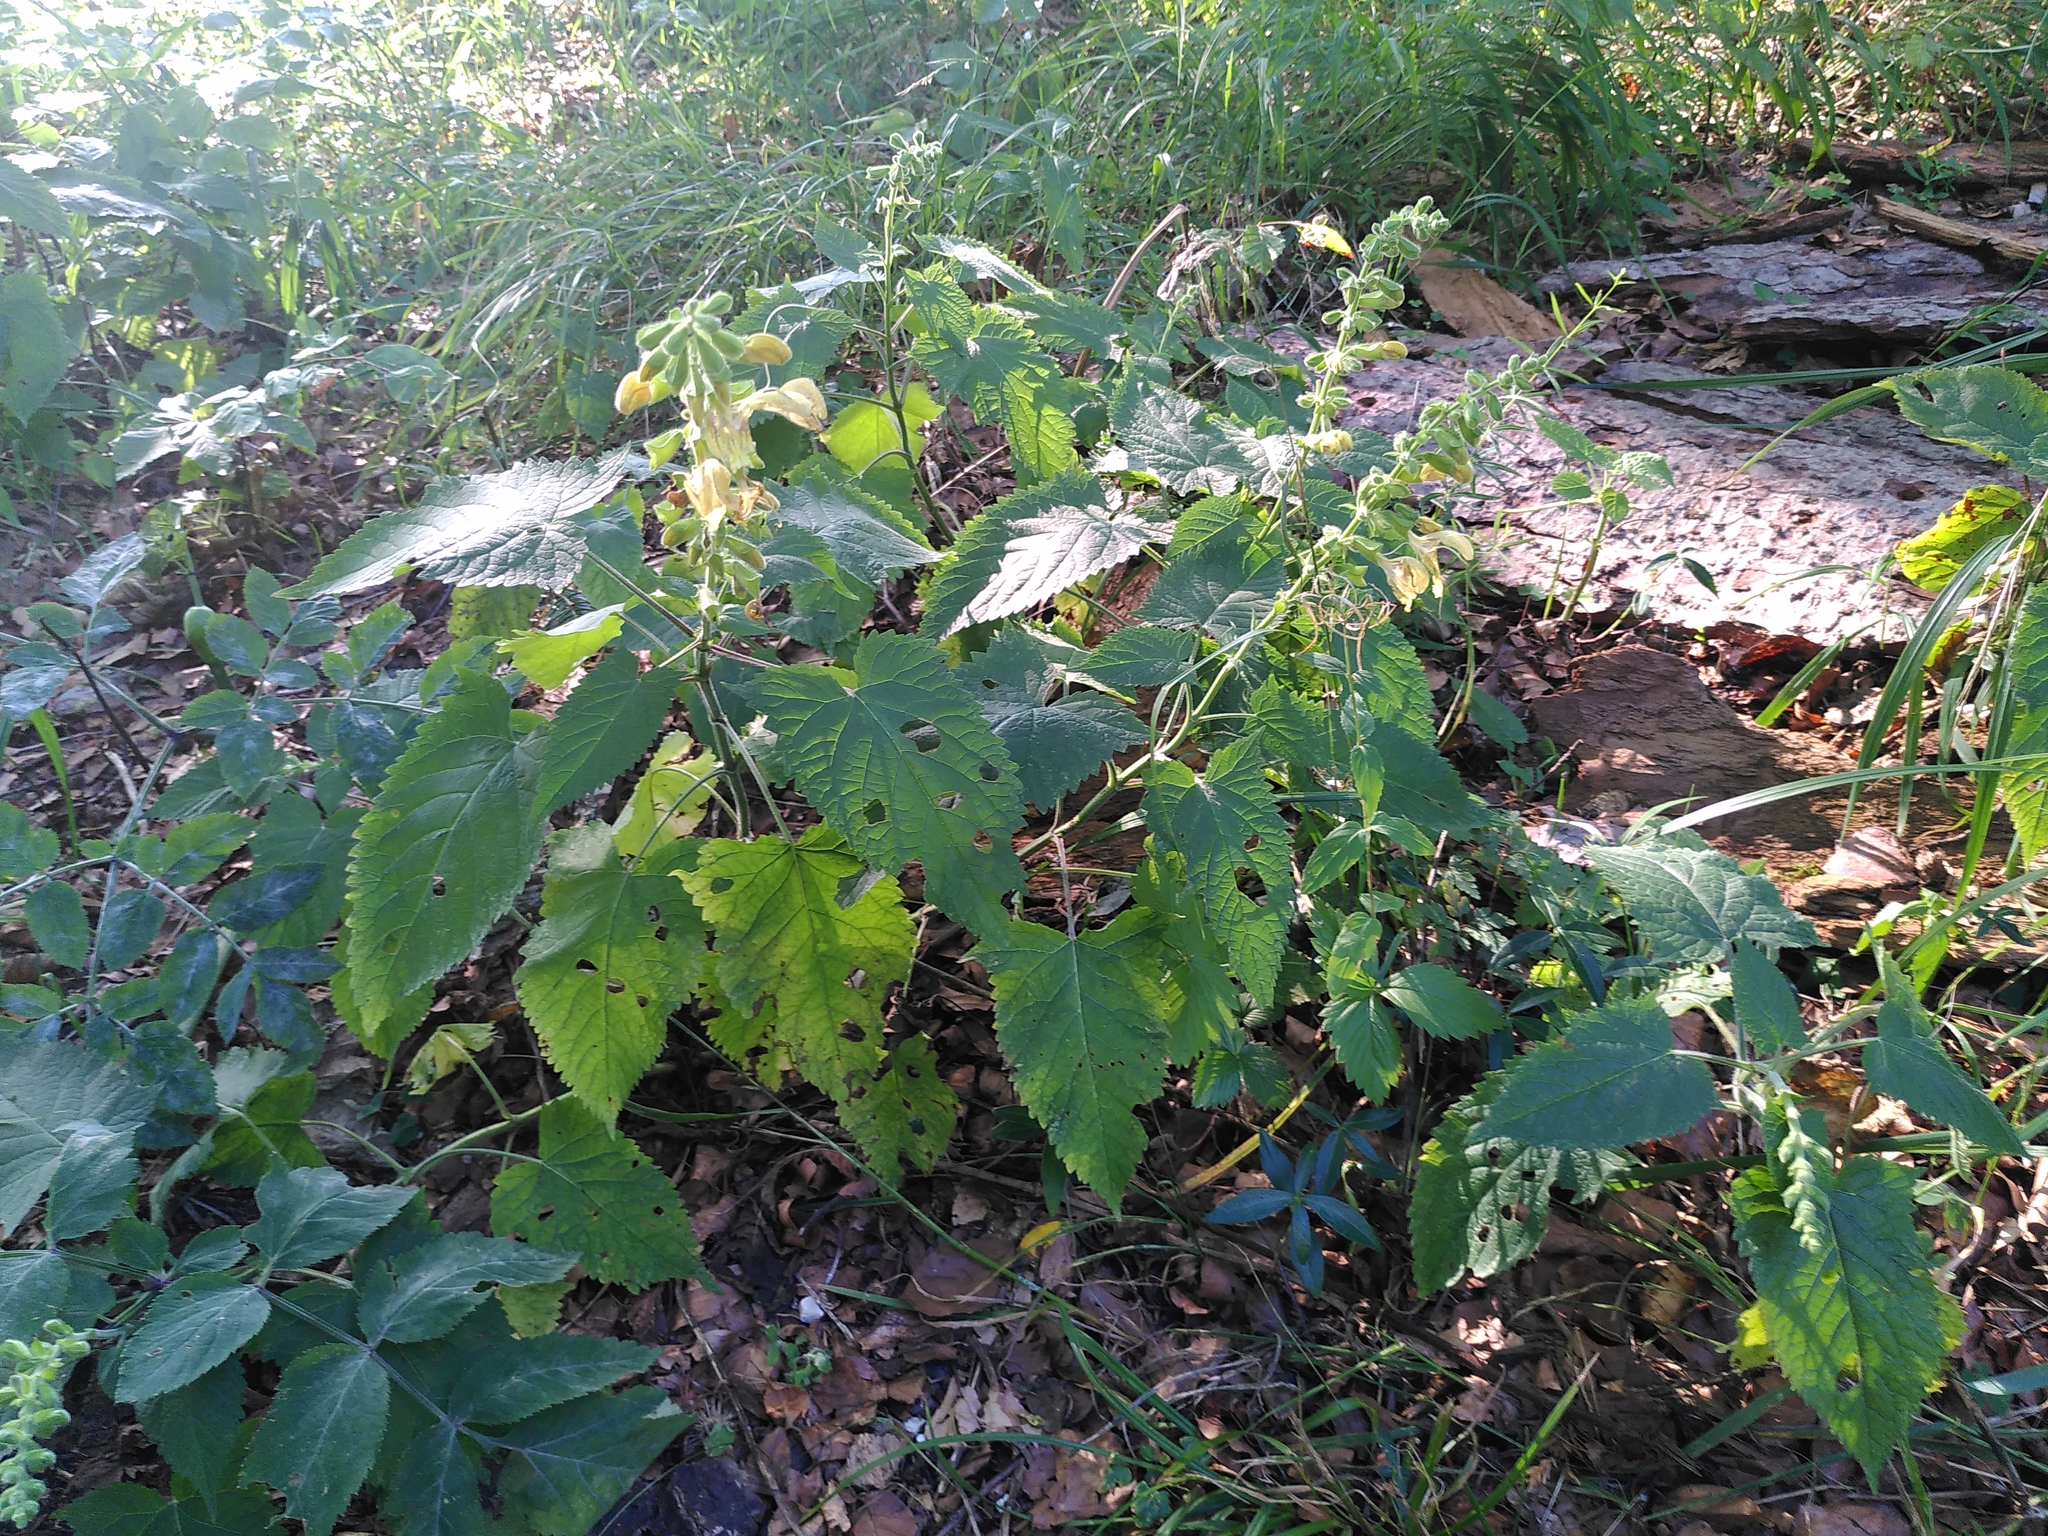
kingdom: Plantae
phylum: Tracheophyta
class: Magnoliopsida
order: Lamiales
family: Lamiaceae
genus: Salvia
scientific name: Salvia glutinosa
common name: Sticky clary
